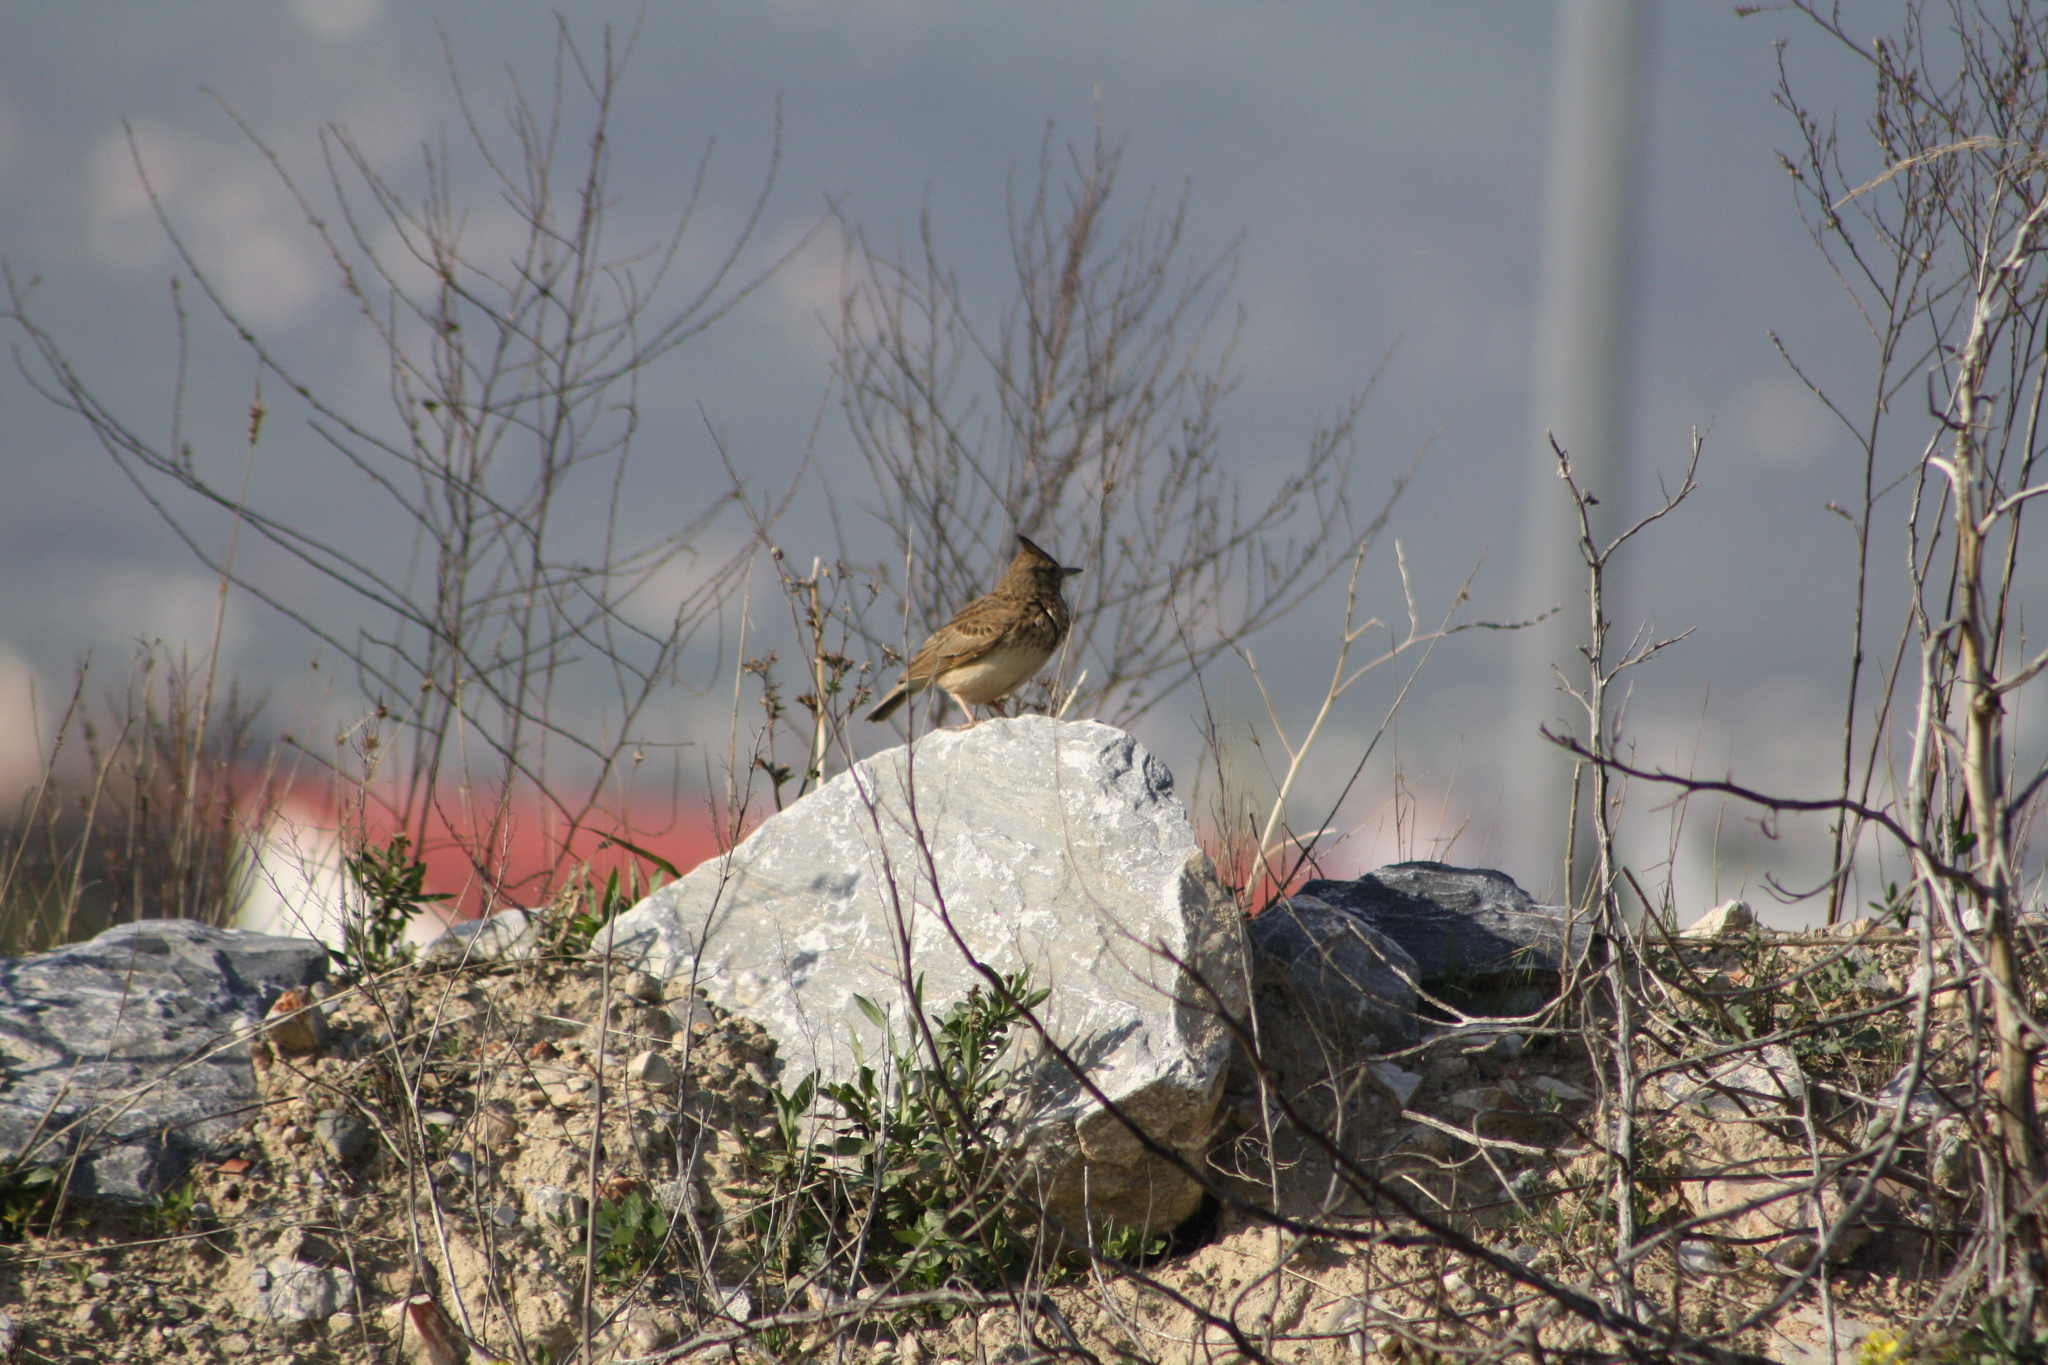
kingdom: Animalia
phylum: Chordata
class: Aves
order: Passeriformes
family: Alaudidae
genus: Galerida
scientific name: Galerida cristata
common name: Crested lark
